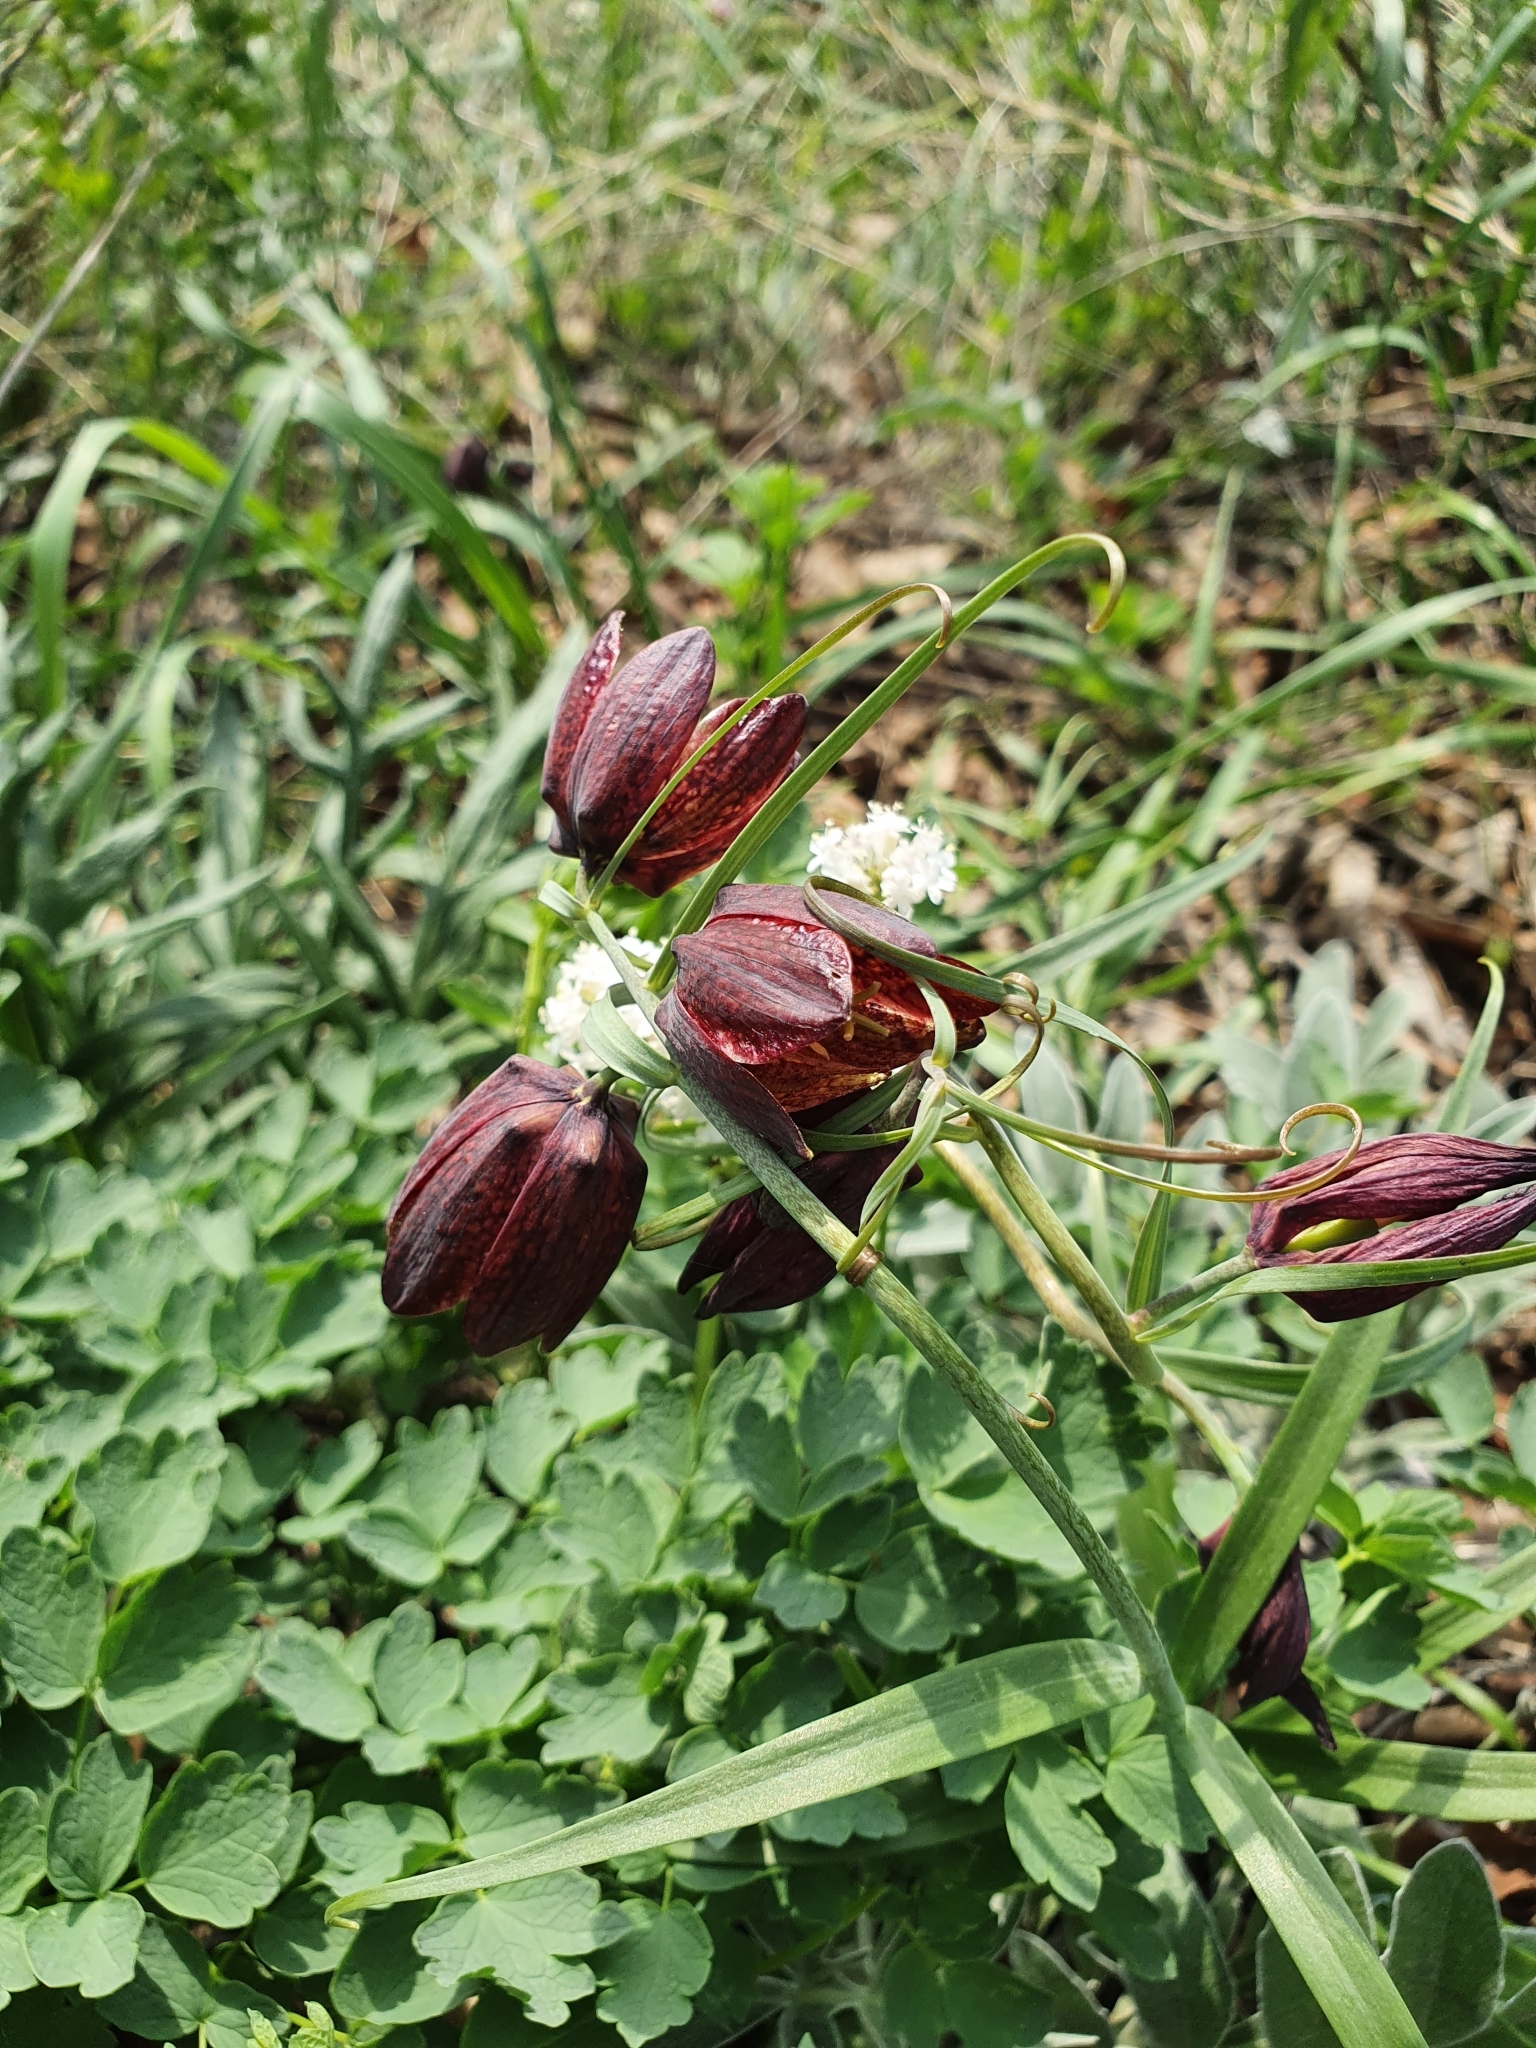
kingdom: Plantae
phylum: Tracheophyta
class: Liliopsida
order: Liliales
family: Liliaceae
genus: Fritillaria
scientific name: Fritillaria ruthenica
